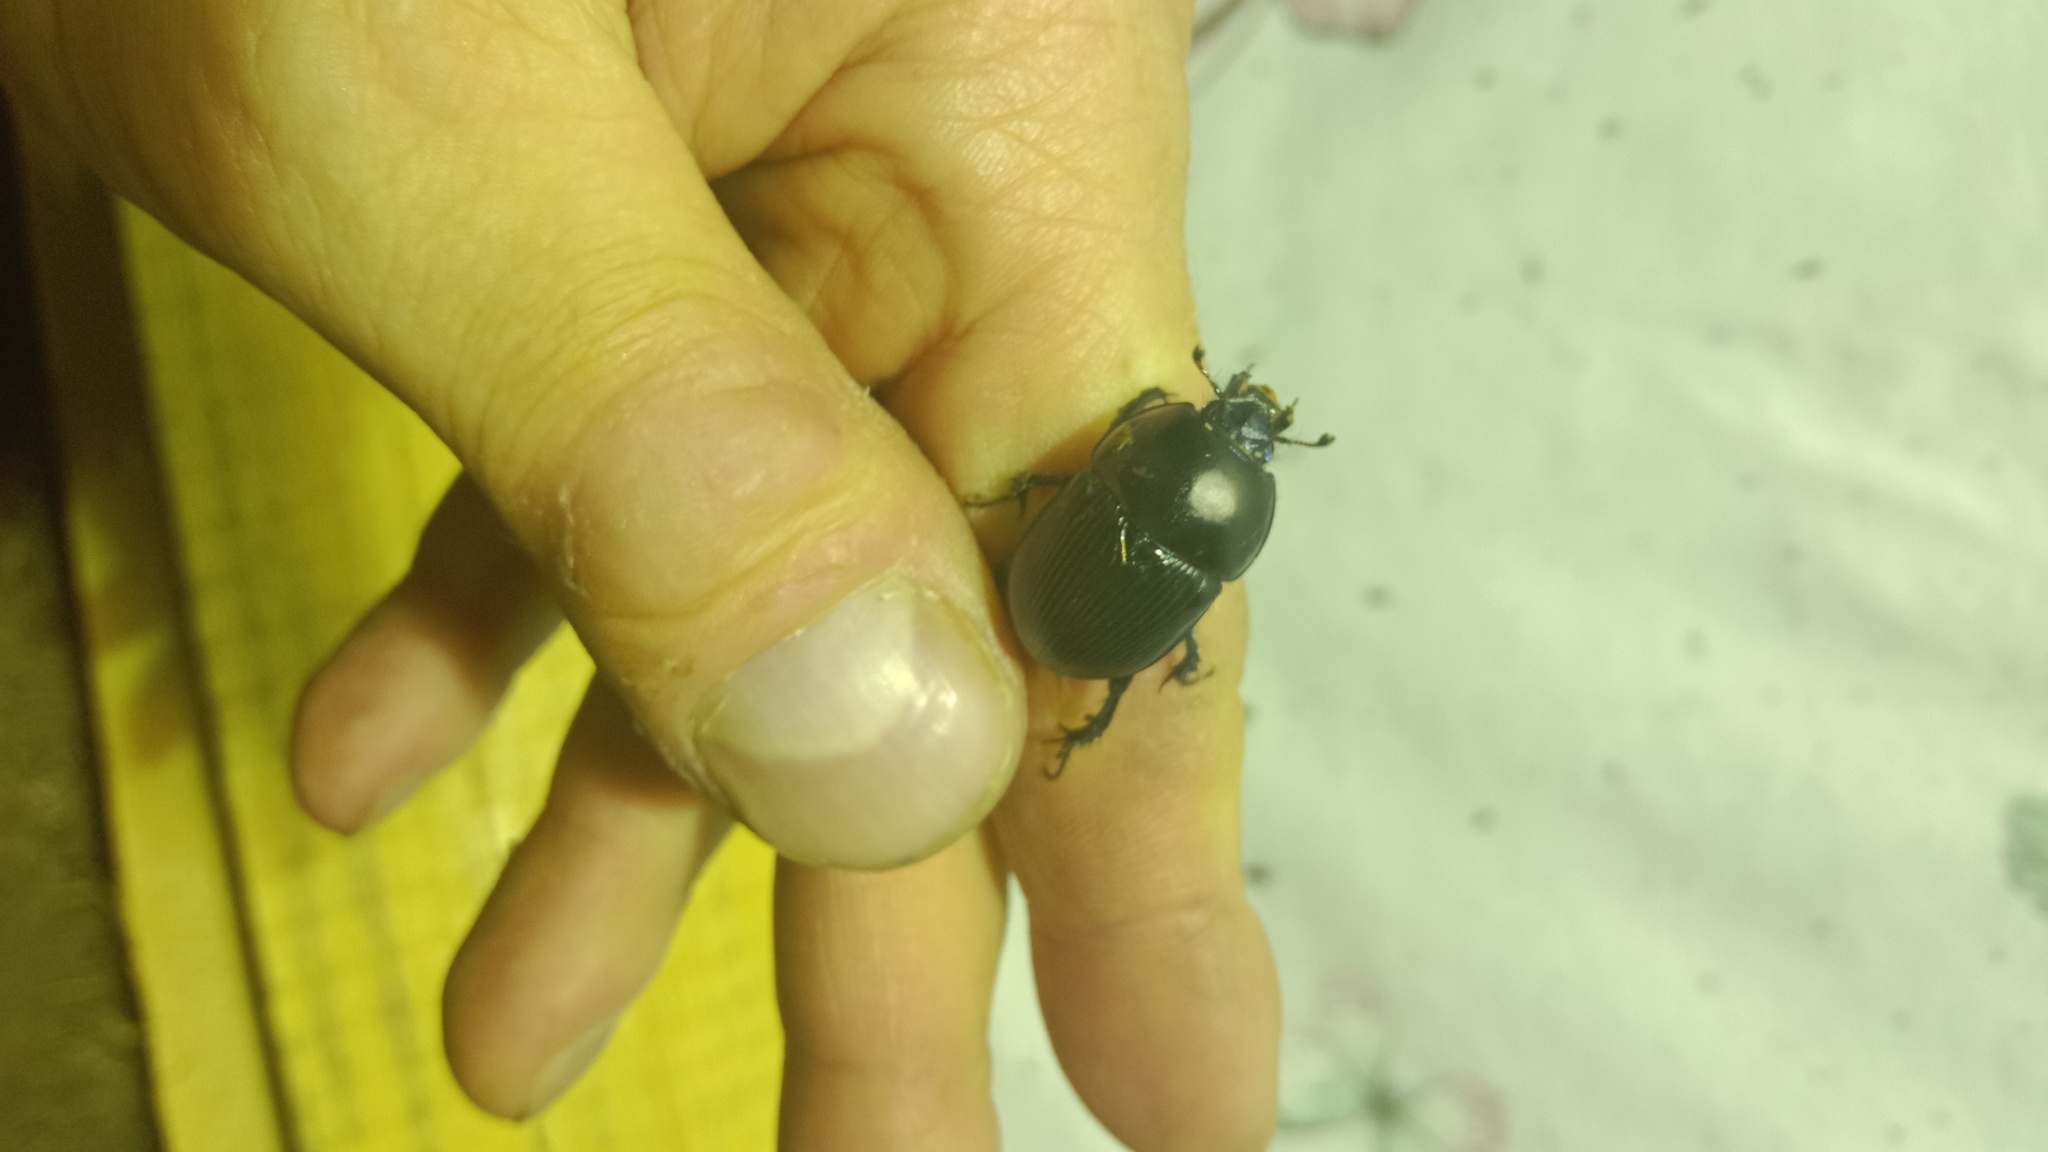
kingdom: Animalia
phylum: Arthropoda
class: Insecta
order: Coleoptera
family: Geotrupidae
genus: Geotrupes
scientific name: Geotrupes spiniger
